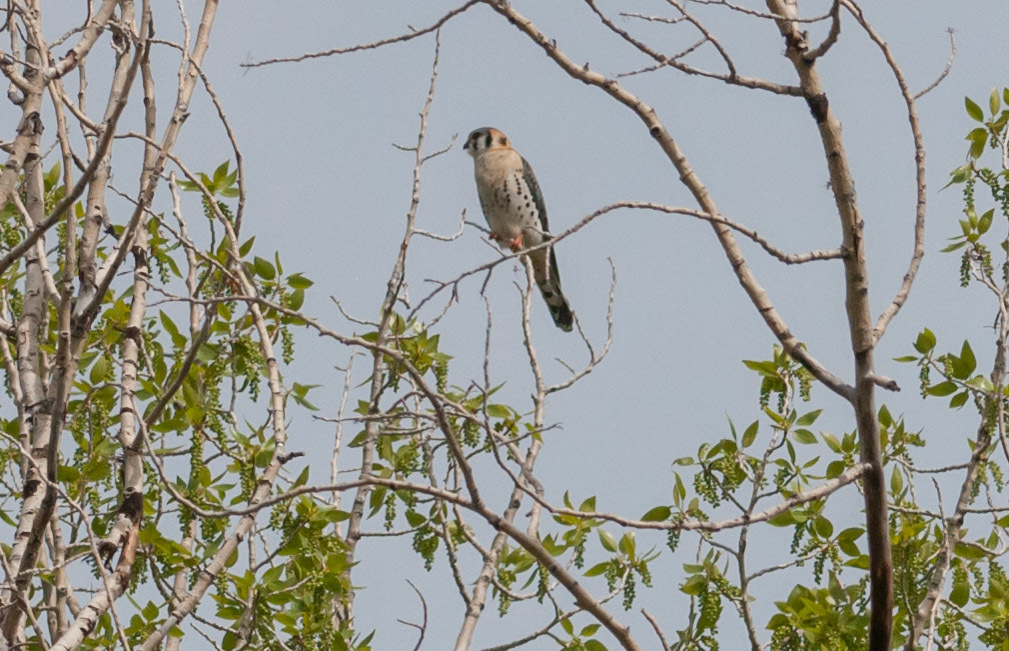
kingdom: Animalia
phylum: Chordata
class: Aves
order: Falconiformes
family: Falconidae
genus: Falco
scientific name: Falco sparverius
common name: American kestrel
